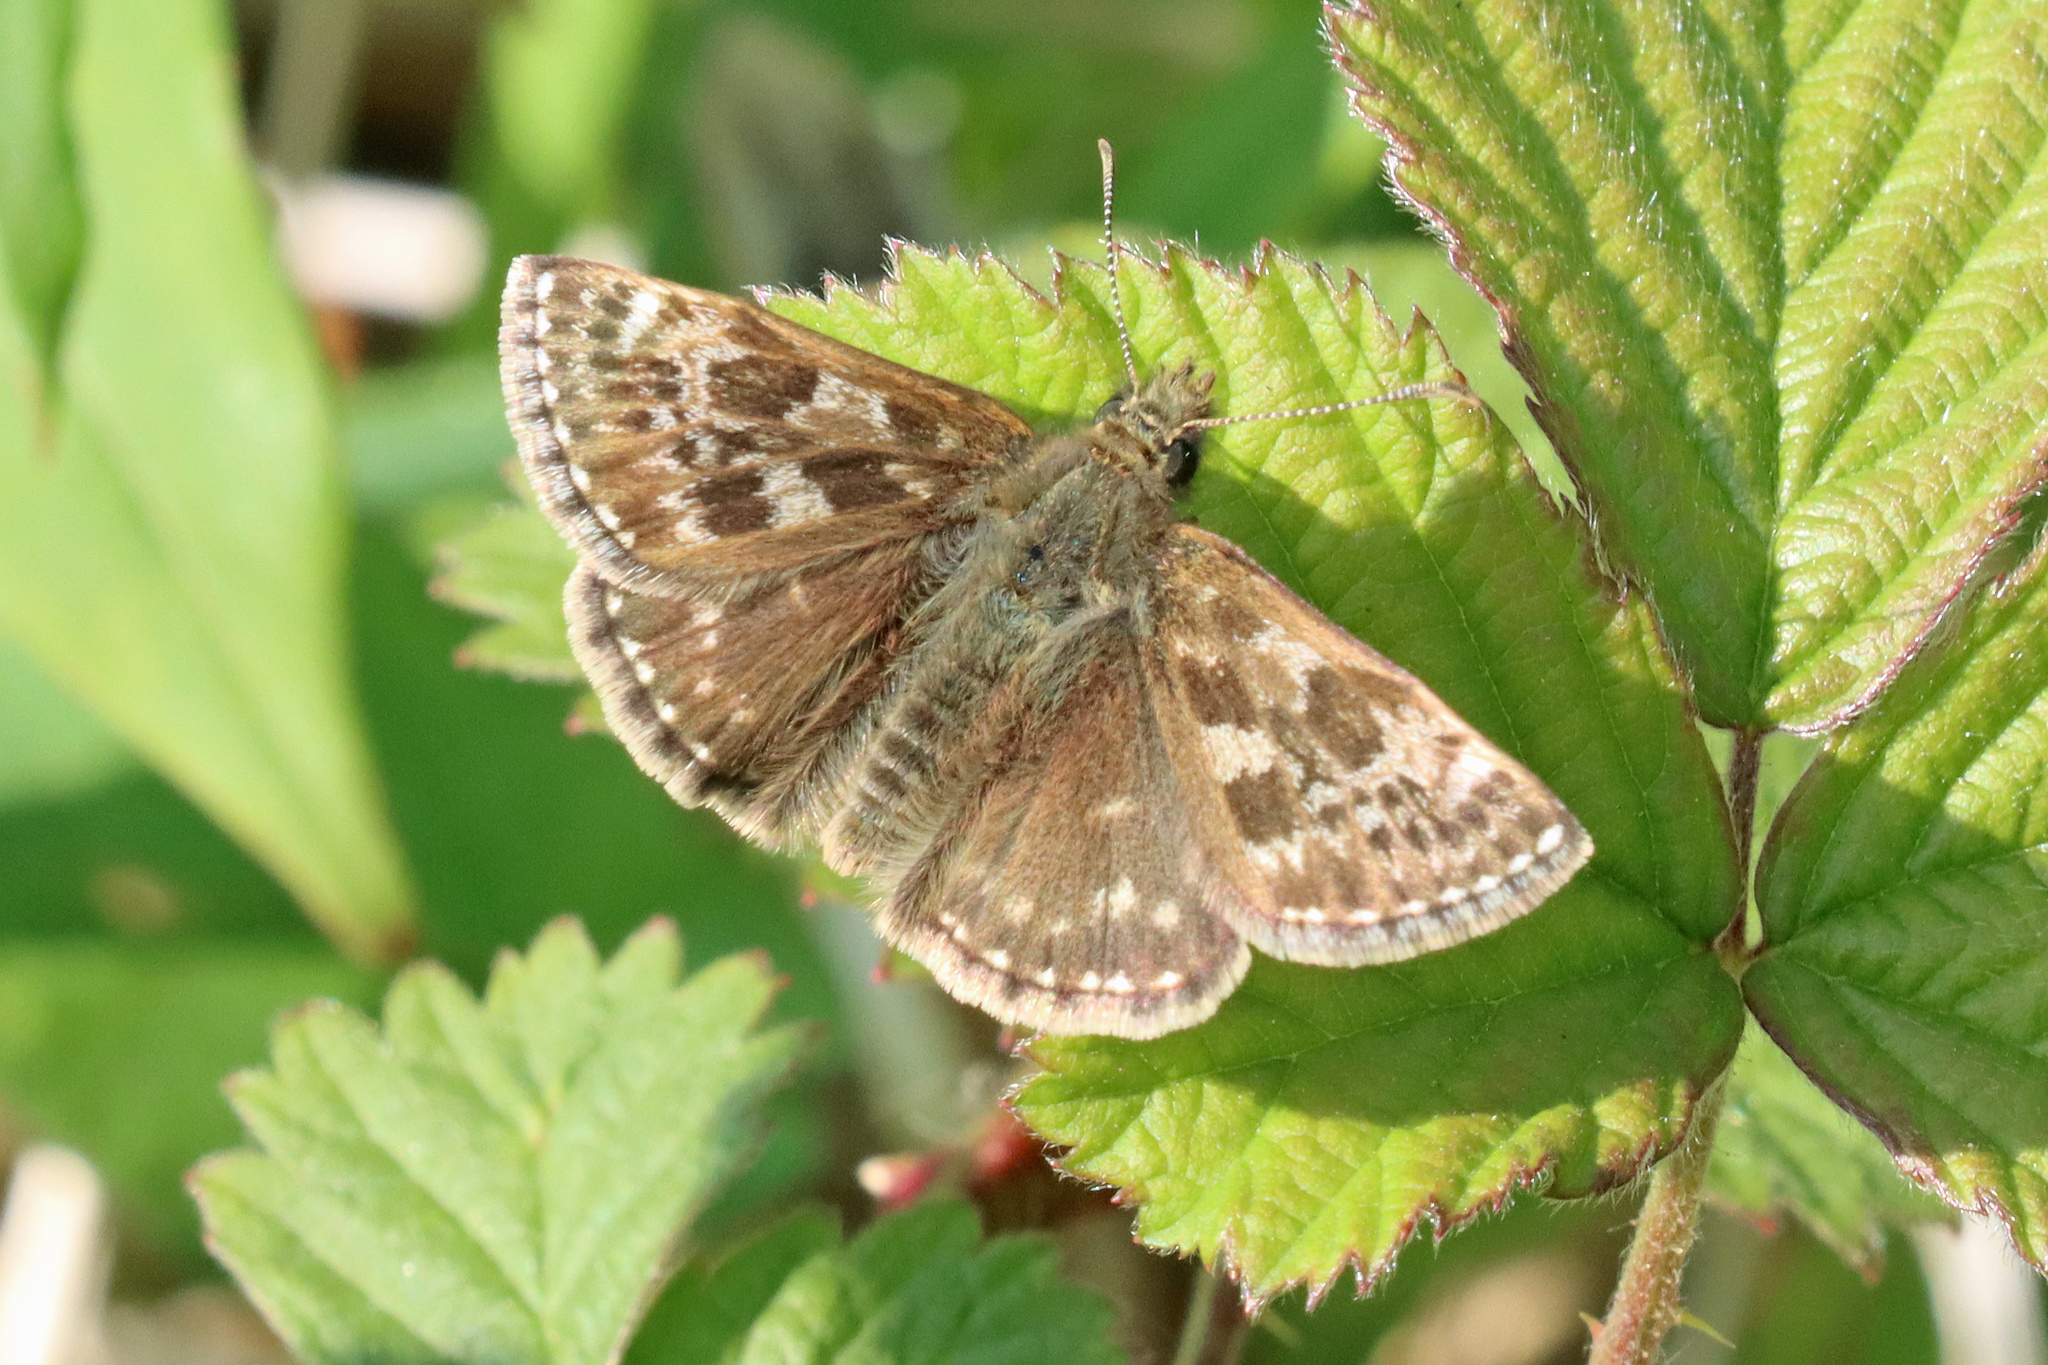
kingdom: Animalia
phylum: Arthropoda
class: Insecta
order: Lepidoptera
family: Hesperiidae
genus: Erynnis
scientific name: Erynnis tages
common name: Dingy skipper
